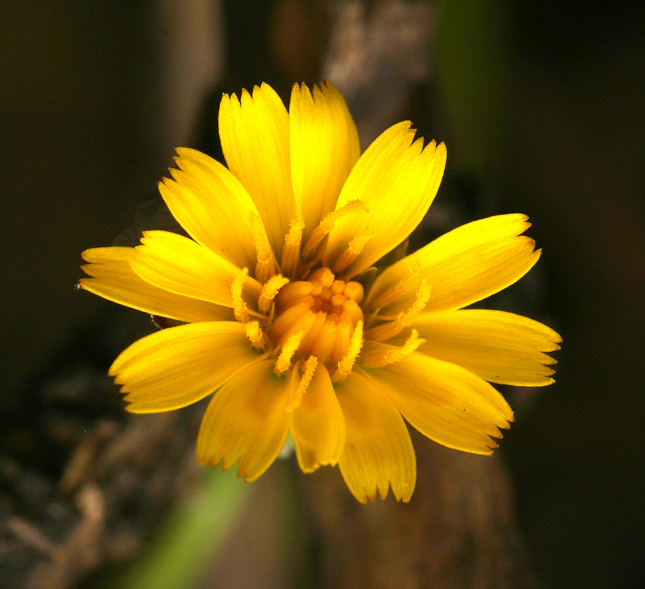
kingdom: Plantae
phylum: Tracheophyta
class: Magnoliopsida
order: Asterales
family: Asteraceae
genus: Hypochaeris
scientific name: Hypochaeris glabra
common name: Smooth catsear
